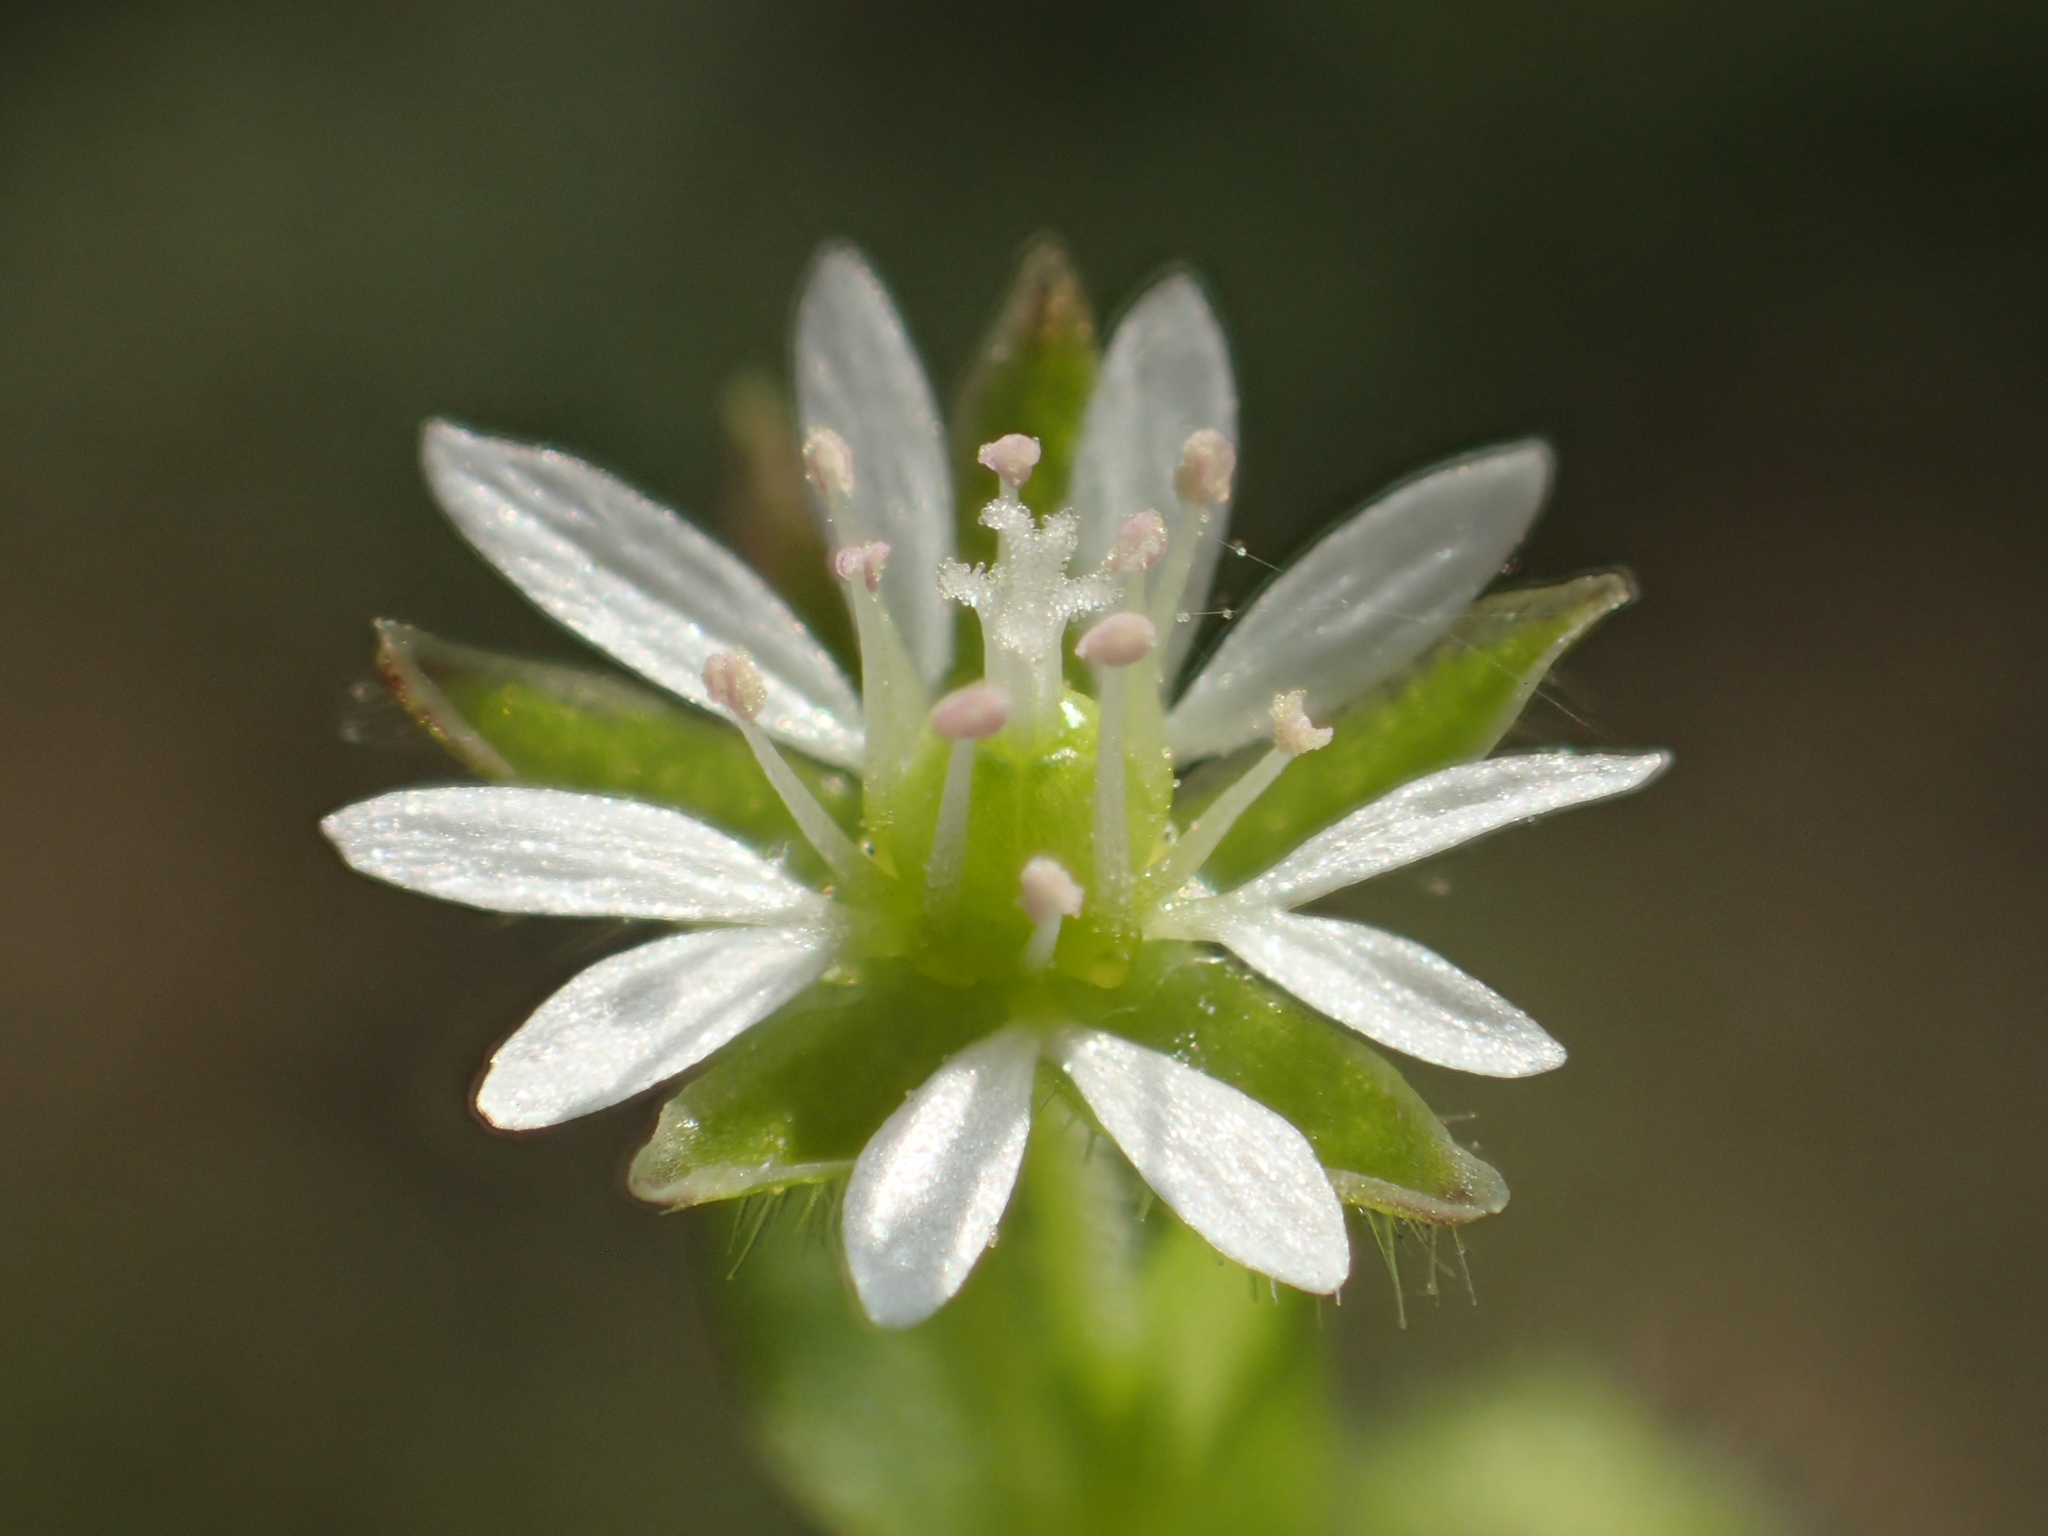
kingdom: Plantae
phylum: Tracheophyta
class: Magnoliopsida
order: Caryophyllales
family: Caryophyllaceae
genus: Stellaria
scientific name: Stellaria aquatica
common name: Water chickweed
